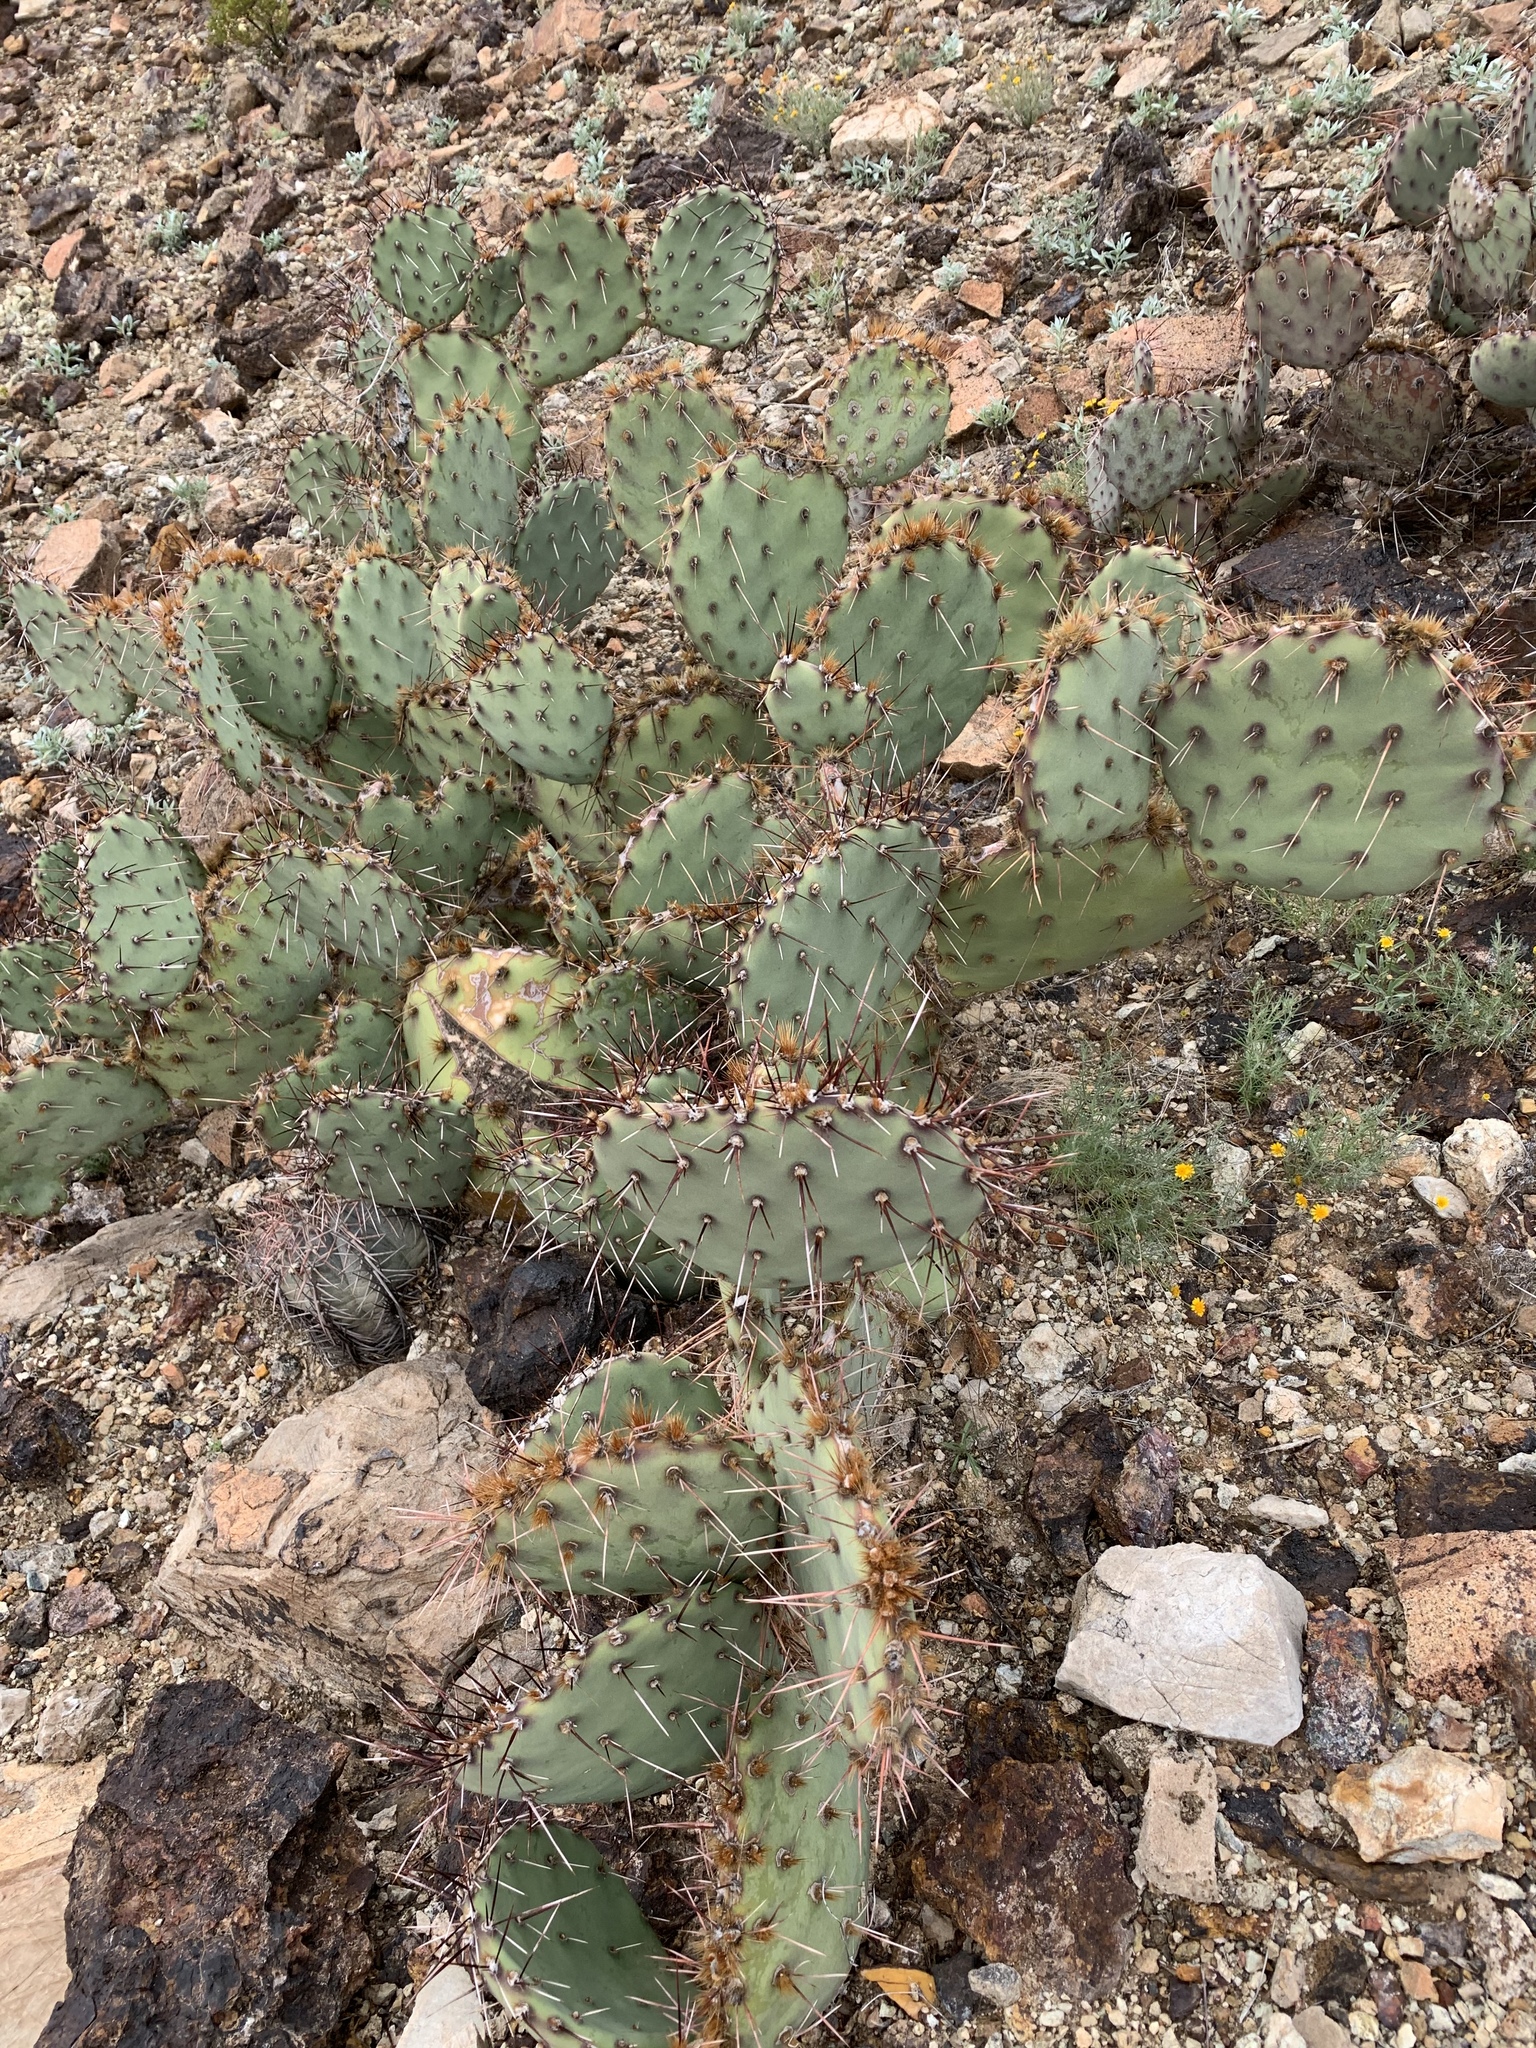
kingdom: Plantae
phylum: Tracheophyta
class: Magnoliopsida
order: Caryophyllales
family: Cactaceae
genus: Opuntia
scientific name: Opuntia macrocentra
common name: Purple prickly-pear
